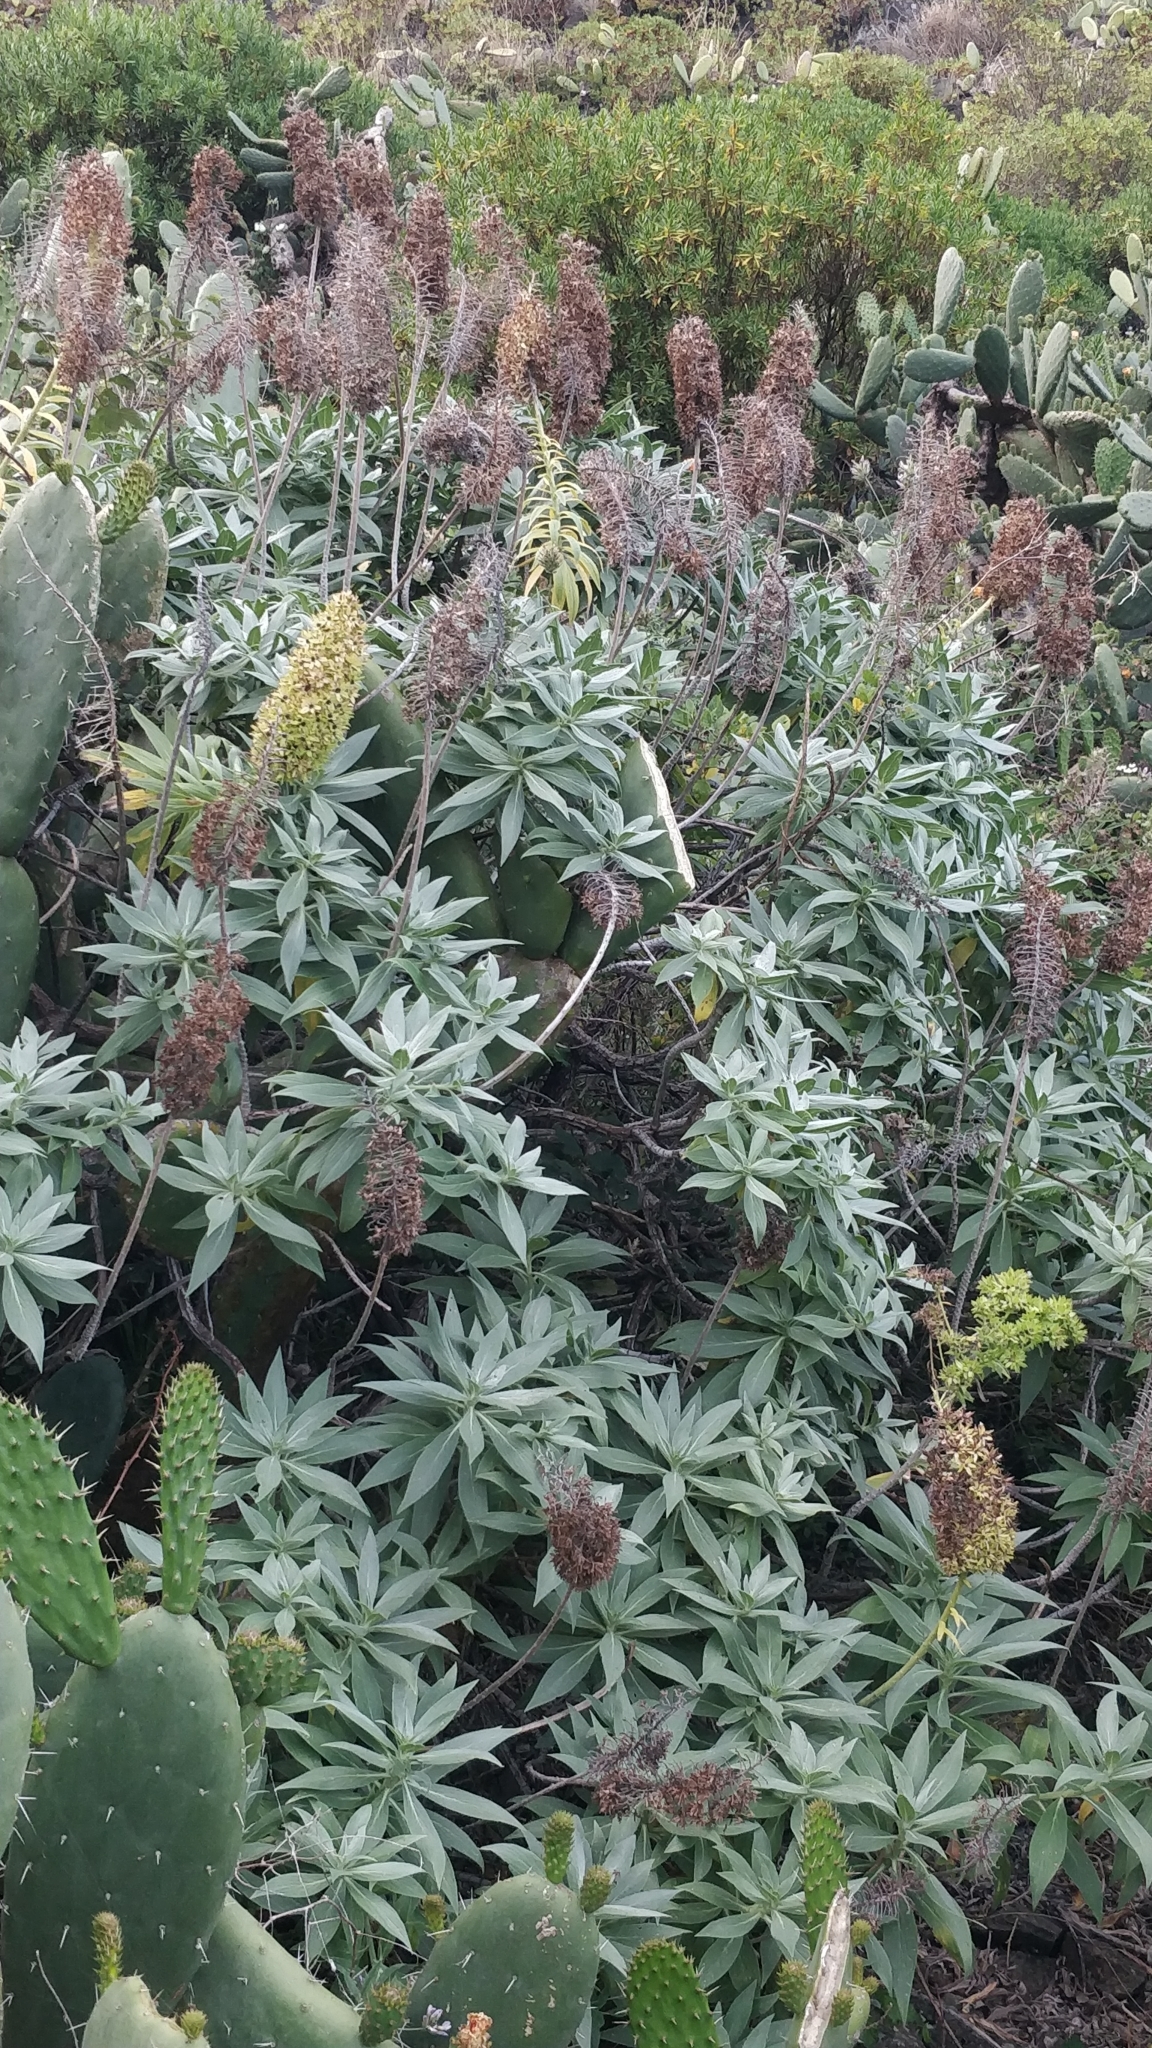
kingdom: Plantae
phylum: Tracheophyta
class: Magnoliopsida
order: Boraginales
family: Boraginaceae
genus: Echium
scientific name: Echium nervosum
